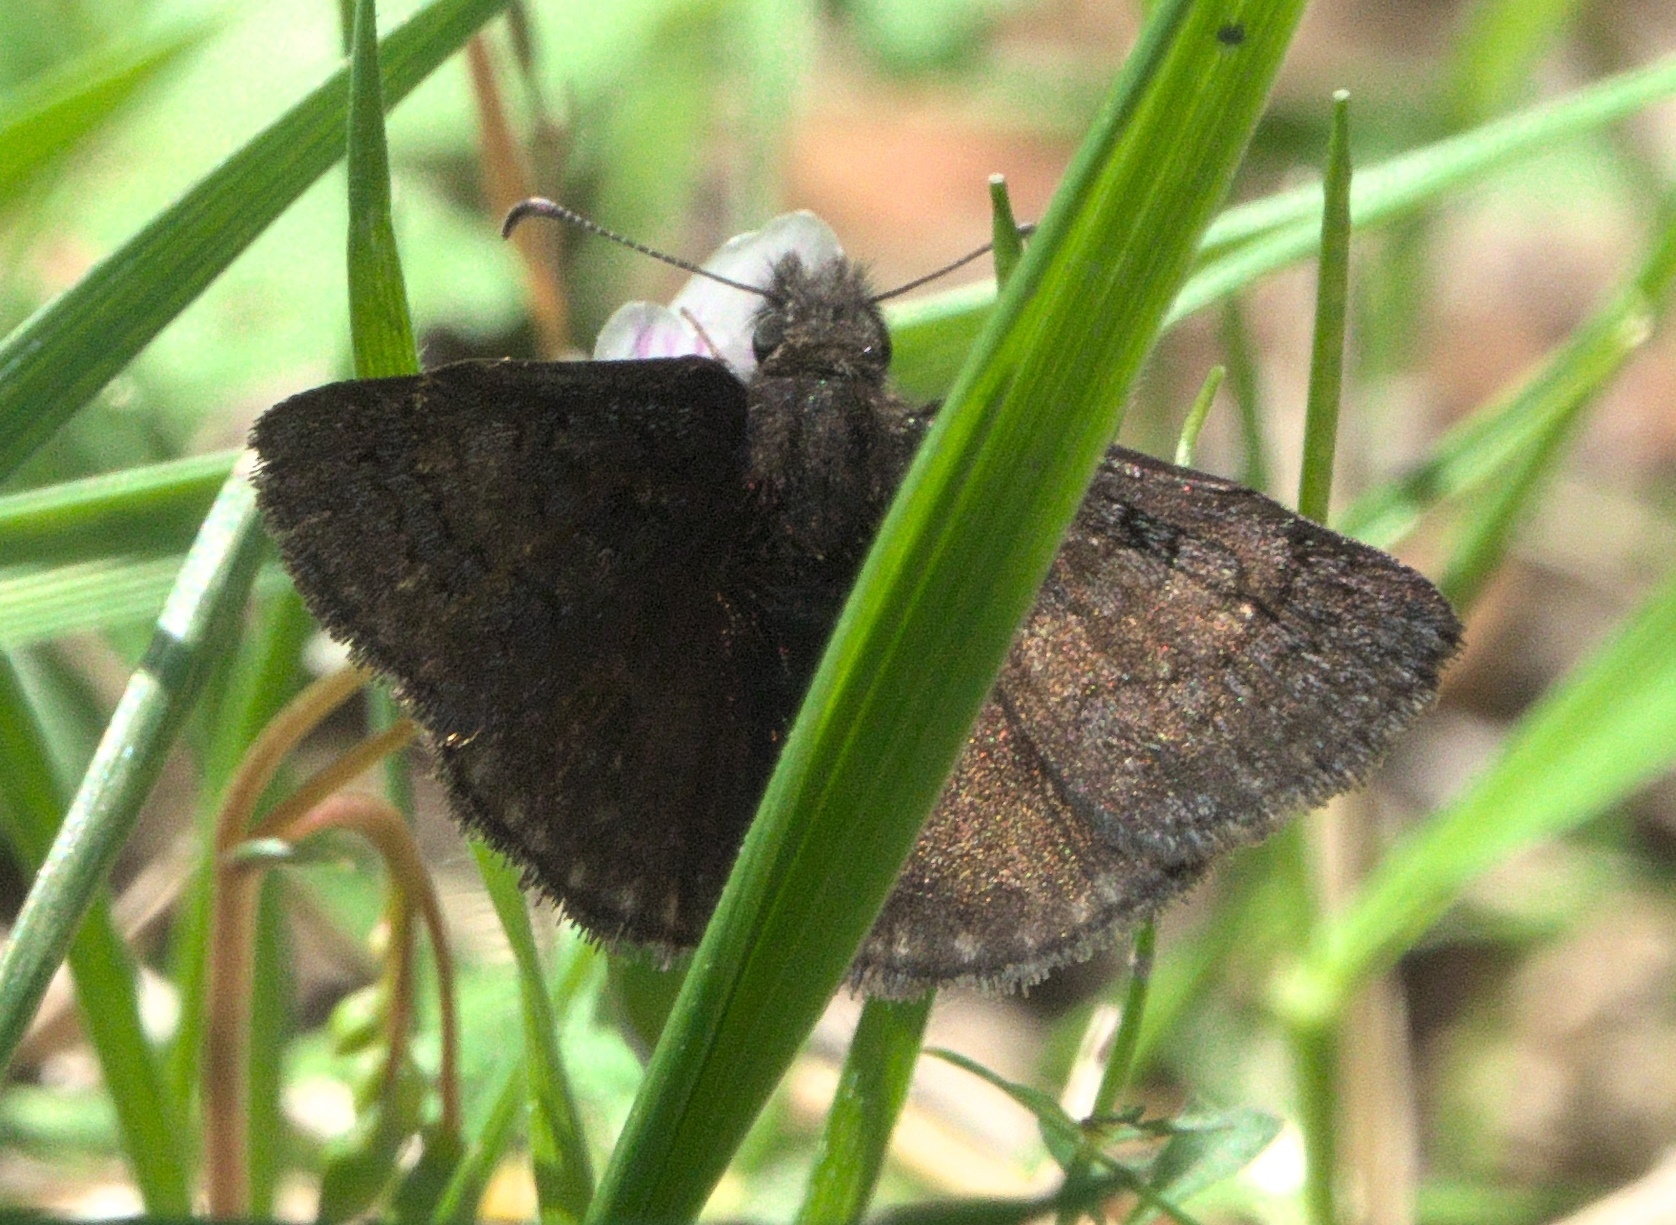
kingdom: Animalia
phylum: Arthropoda
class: Insecta
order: Lepidoptera
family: Hesperiidae
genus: Erynnis
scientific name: Erynnis brizo
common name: Sleepy duskywing
